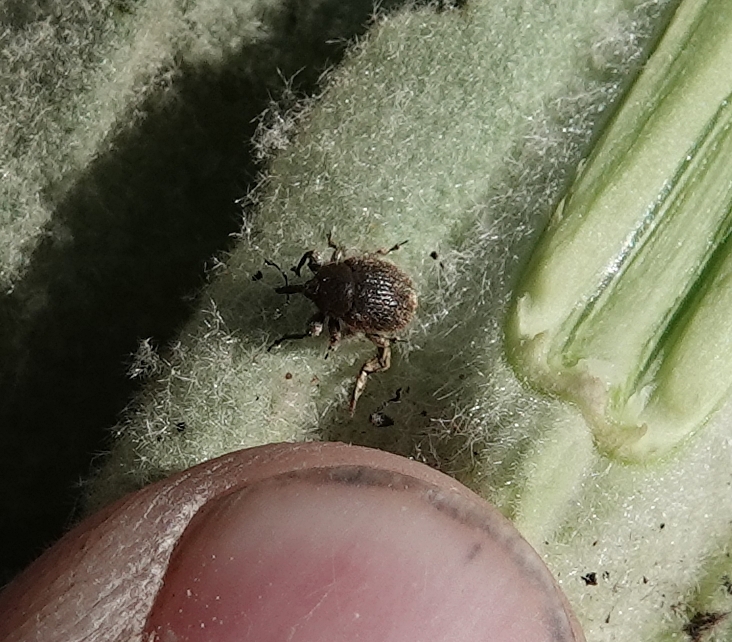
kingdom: Animalia
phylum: Arthropoda
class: Insecta
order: Coleoptera
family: Curculionidae
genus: Rhinusa
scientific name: Rhinusa tetra
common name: Weevil
